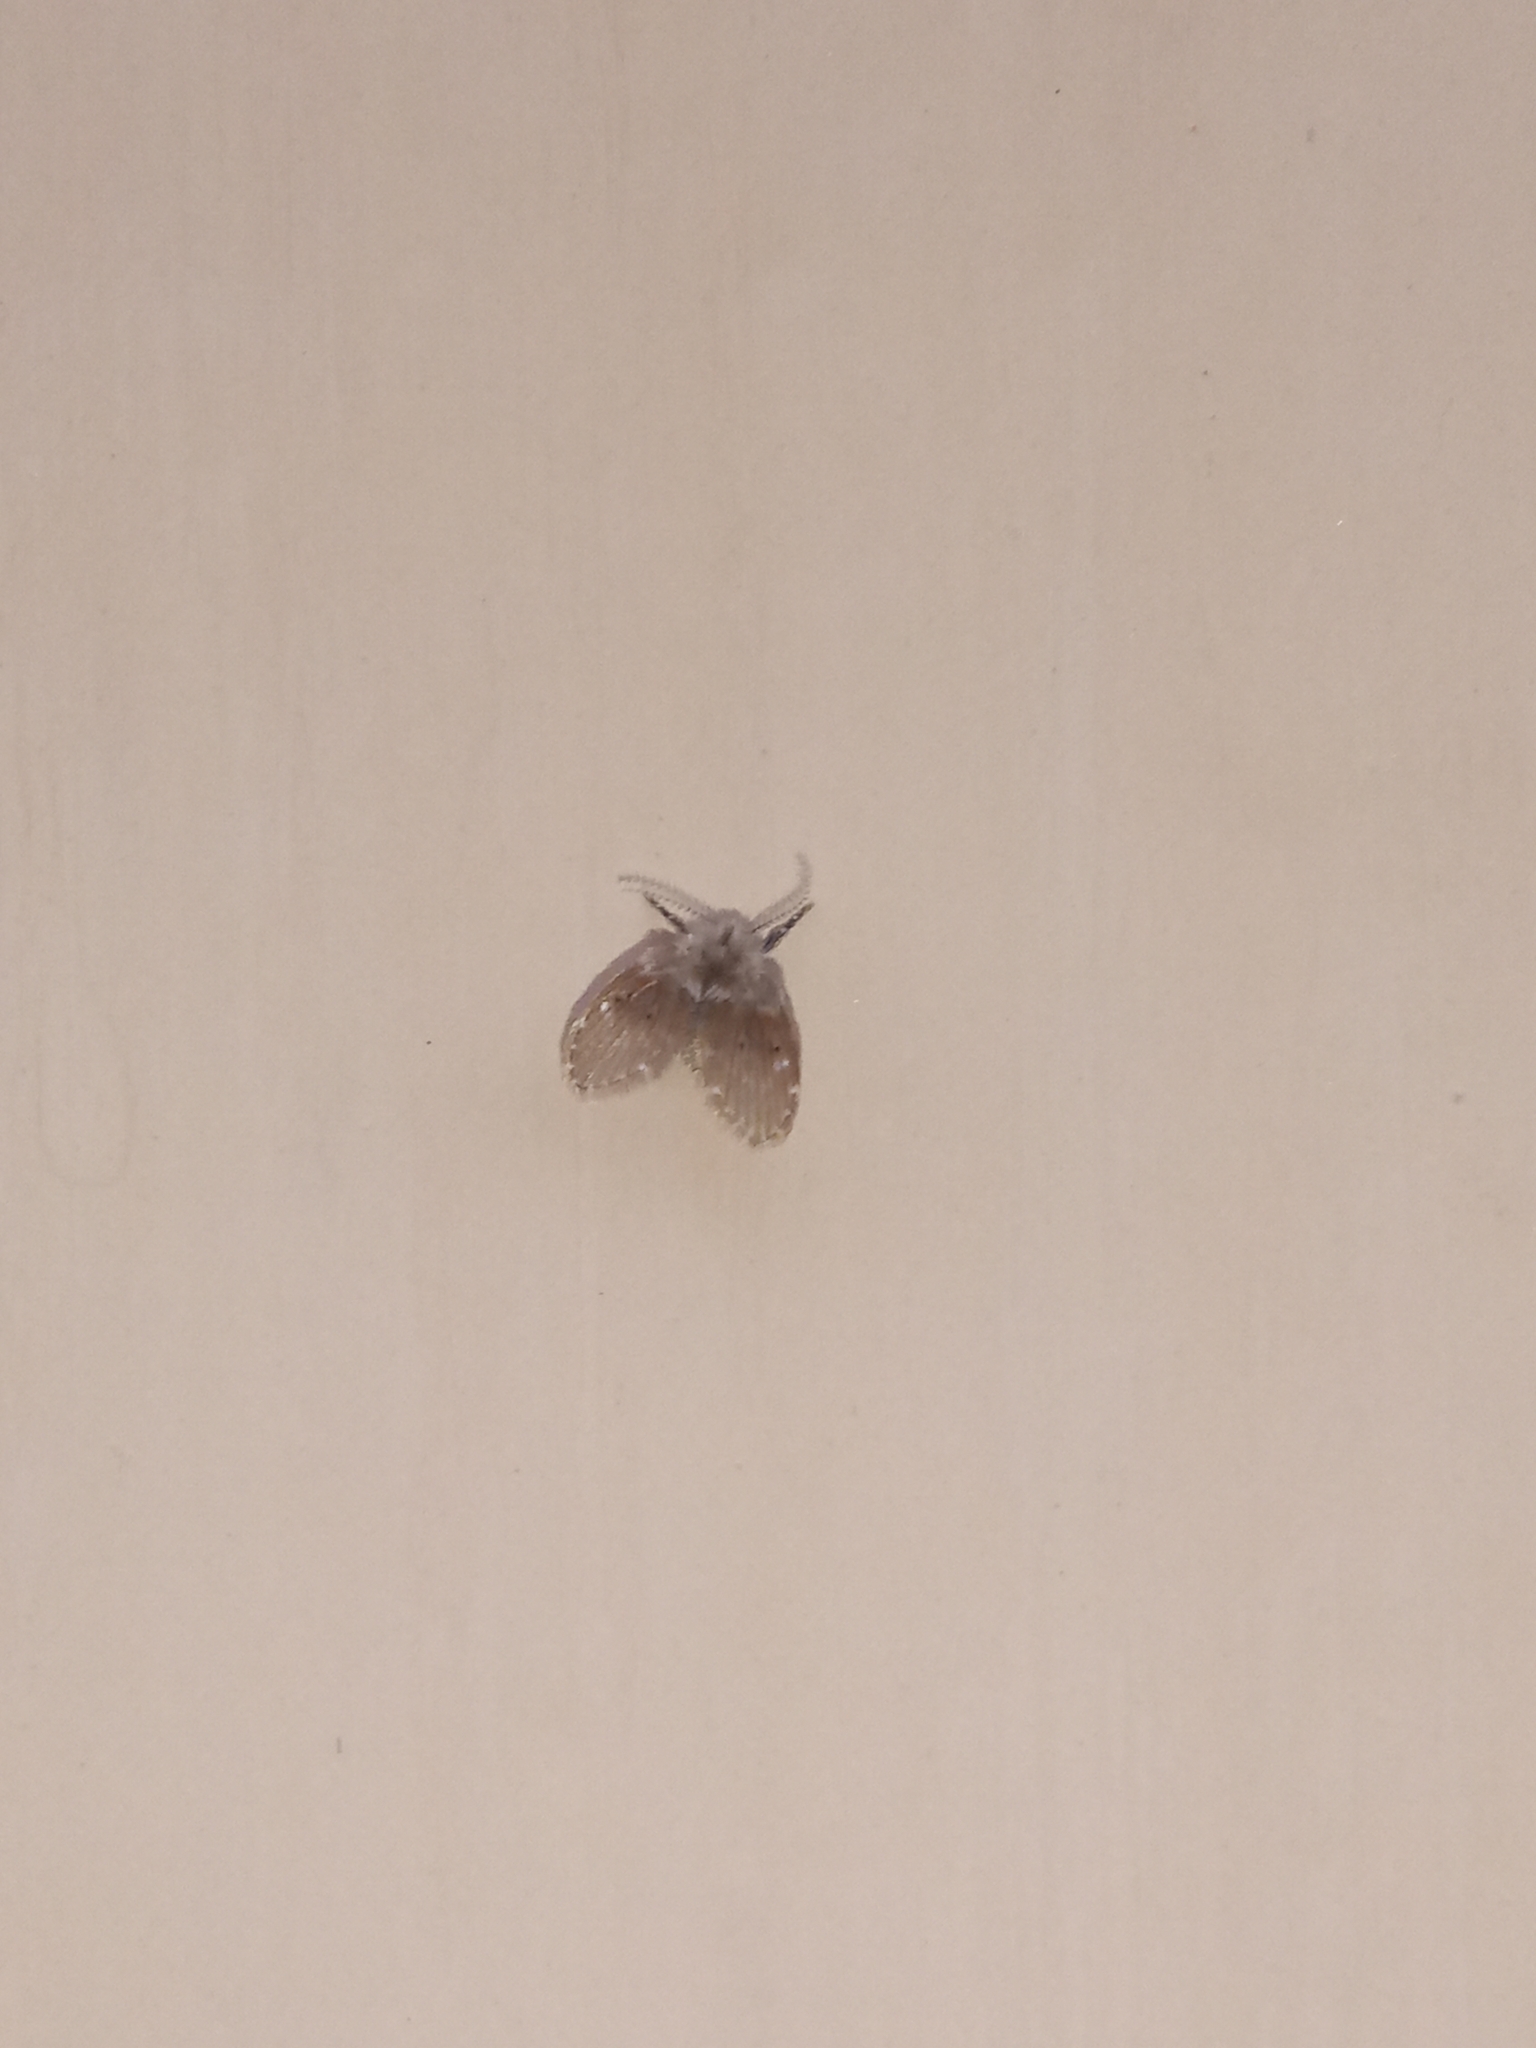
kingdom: Animalia
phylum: Arthropoda
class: Insecta
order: Diptera
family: Psychodidae
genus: Clogmia
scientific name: Clogmia albipunctatus
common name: White-spotted moth fly
